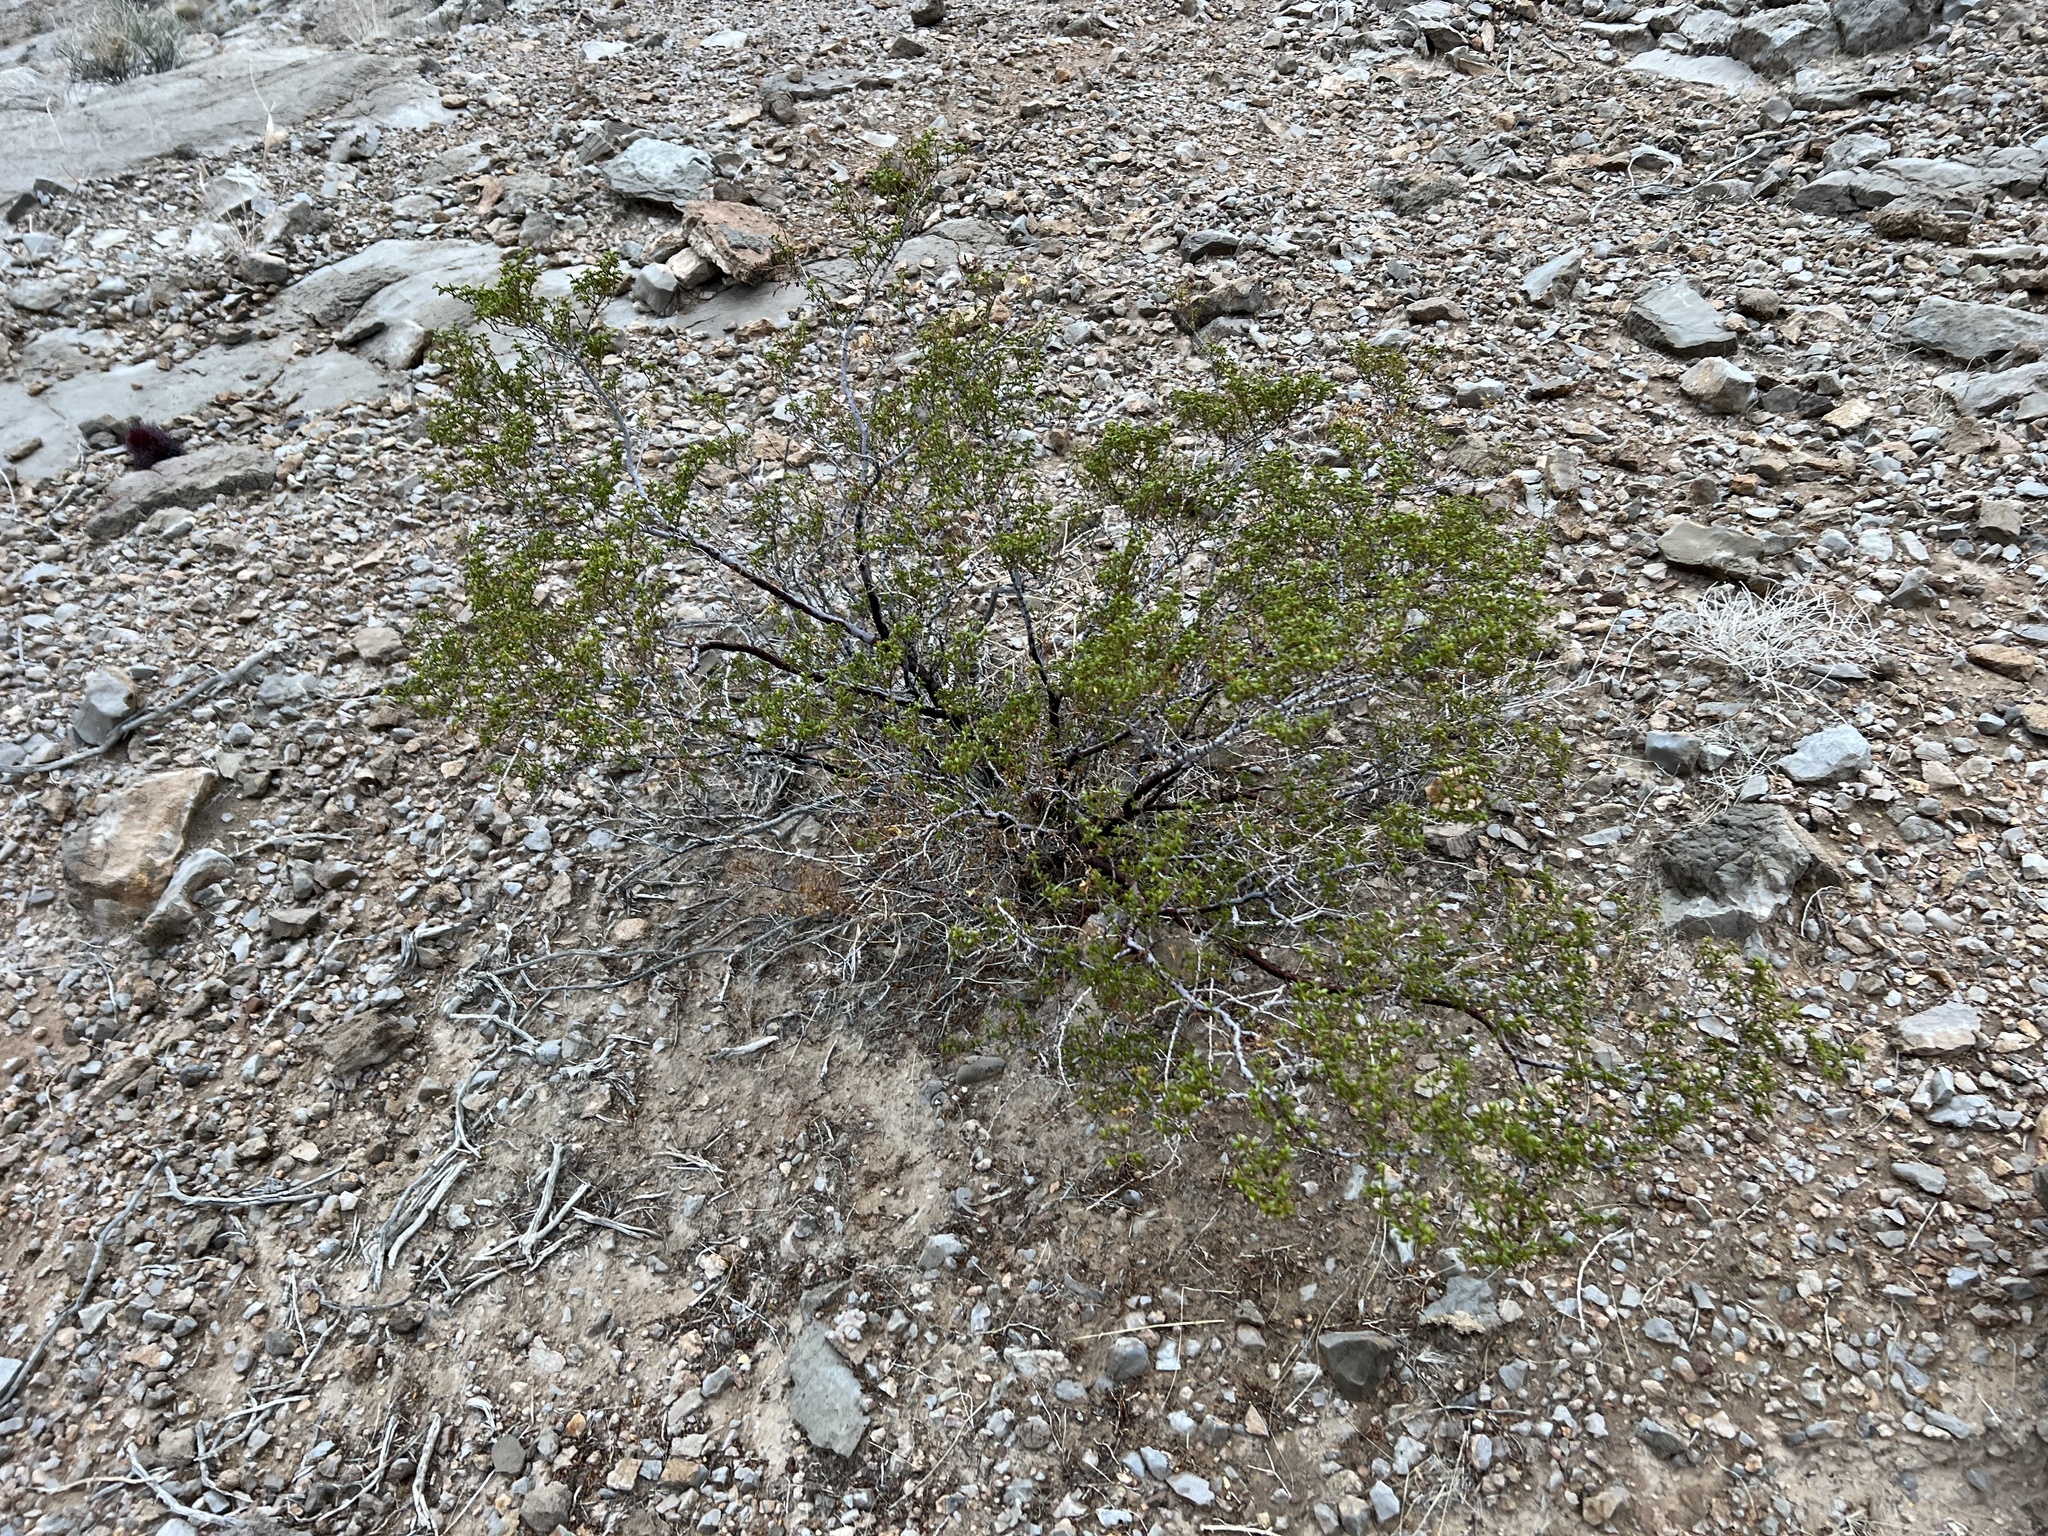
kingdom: Plantae
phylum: Tracheophyta
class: Magnoliopsida
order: Zygophyllales
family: Zygophyllaceae
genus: Larrea
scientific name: Larrea tridentata
